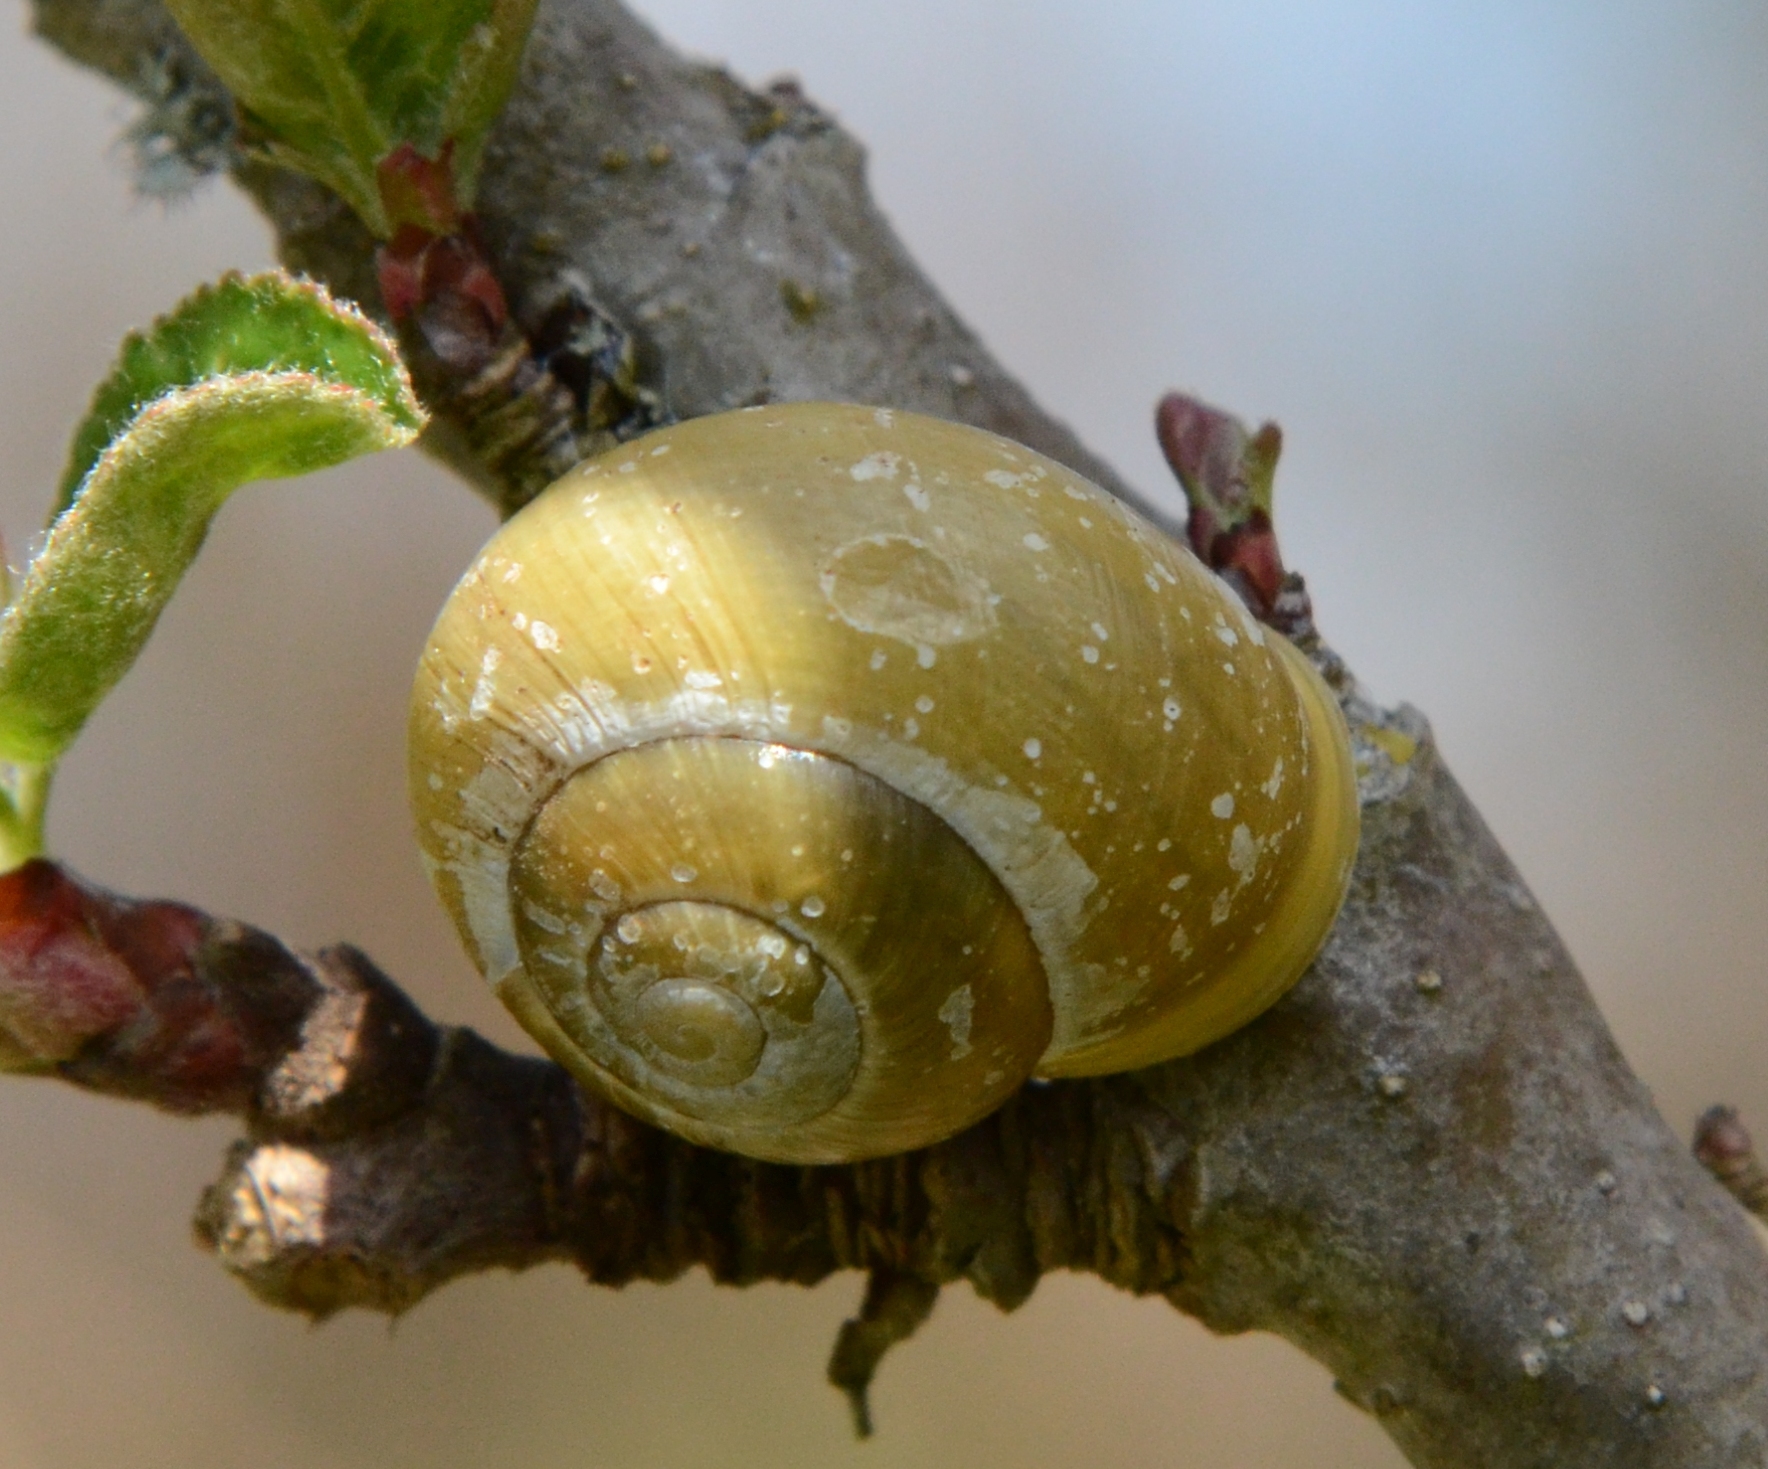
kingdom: Animalia
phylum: Mollusca
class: Gastropoda
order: Stylommatophora
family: Helicidae
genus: Cepaea
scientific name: Cepaea hortensis
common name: White-lip gardensnail
